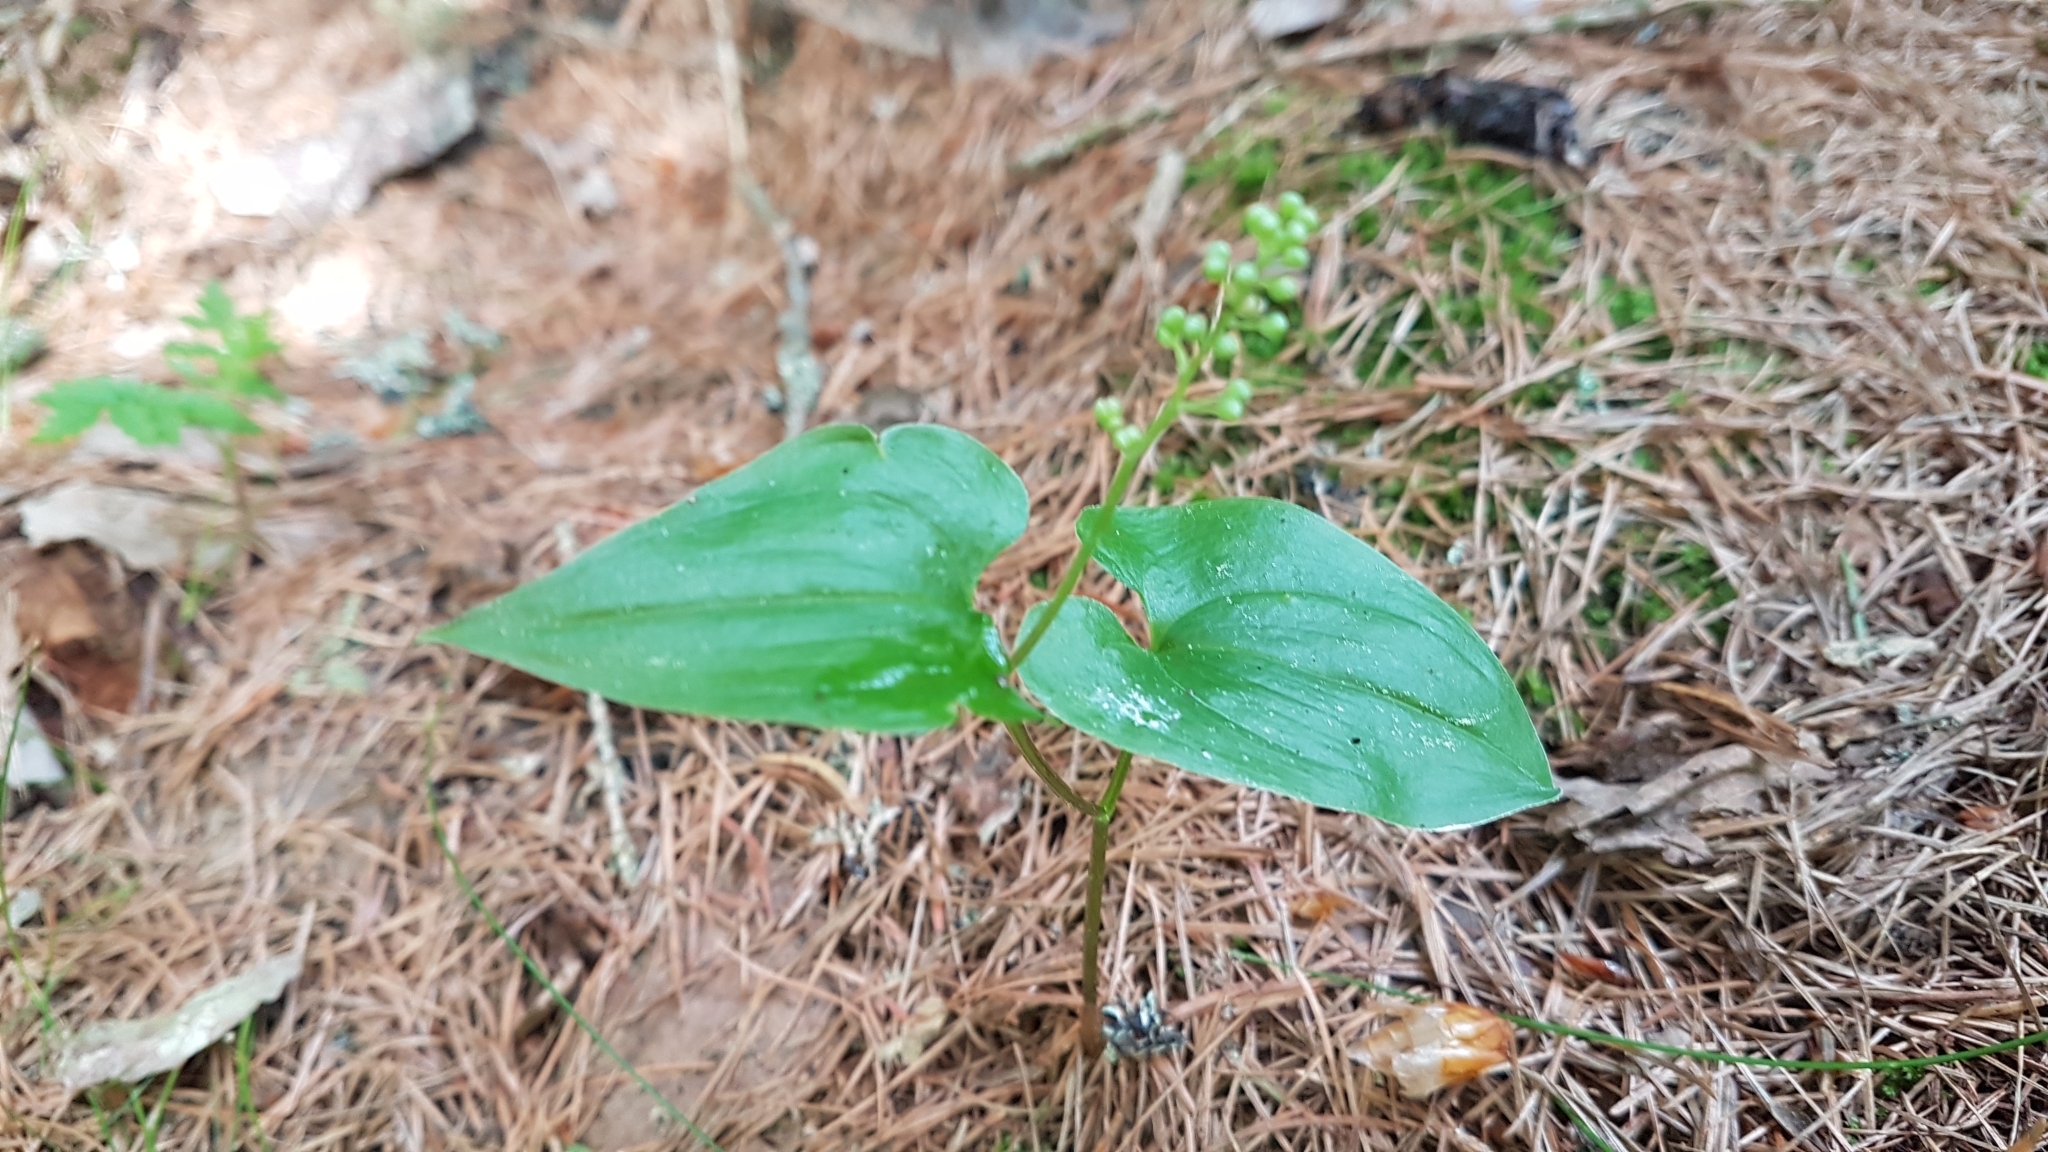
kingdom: Plantae
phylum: Tracheophyta
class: Liliopsida
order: Asparagales
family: Asparagaceae
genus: Maianthemum
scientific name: Maianthemum bifolium
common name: May lily
